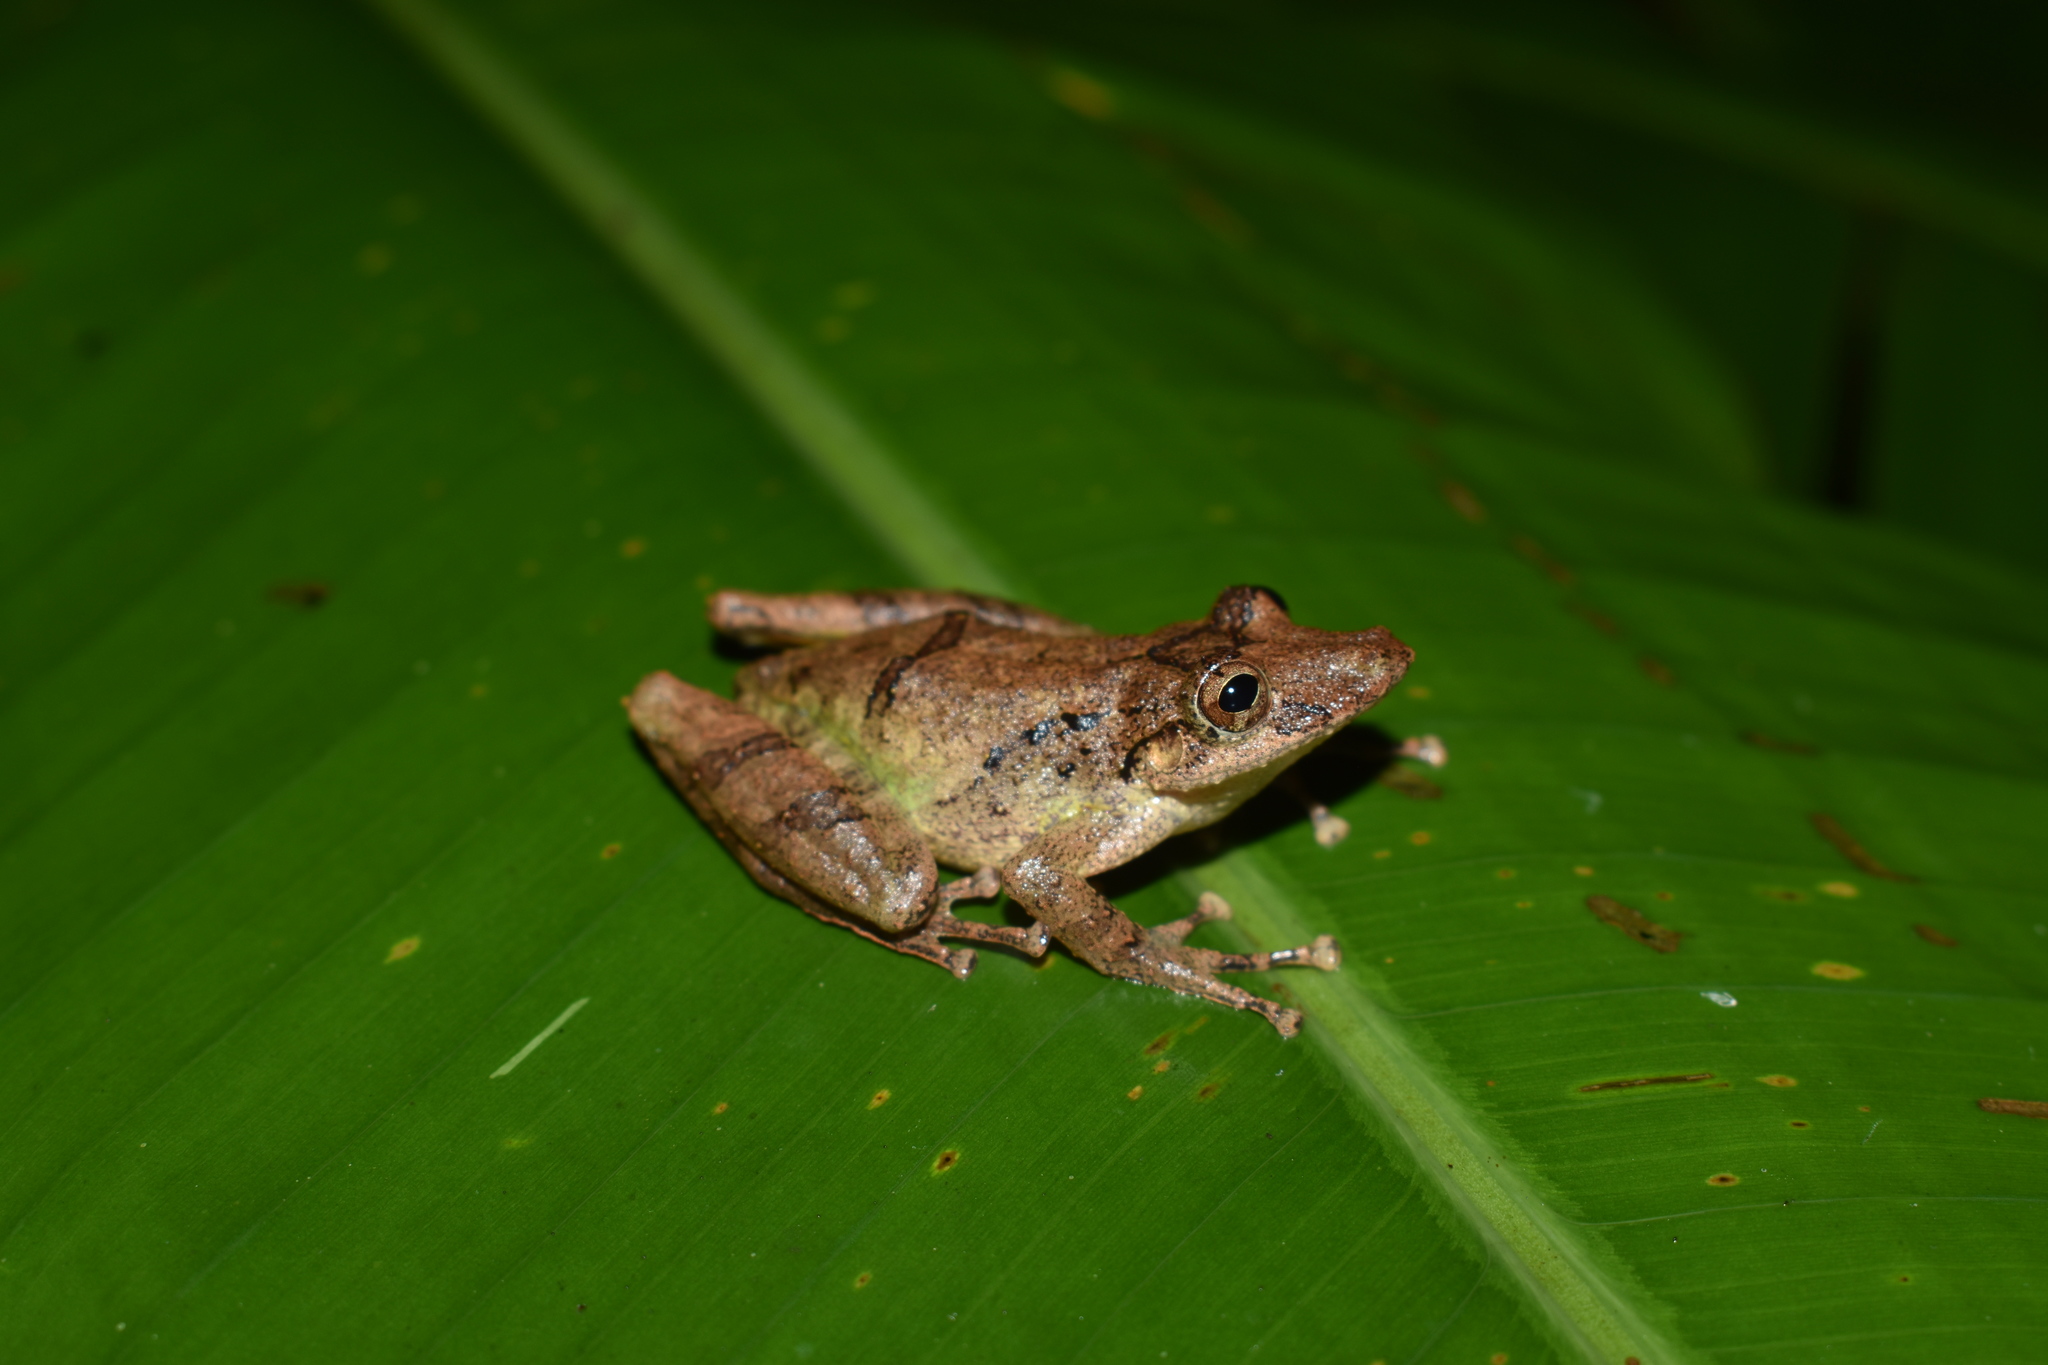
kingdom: Animalia
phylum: Chordata
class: Amphibia
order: Anura
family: Hylidae
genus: Scinax
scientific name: Scinax garbei
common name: Eirunepe snouted treefrog
